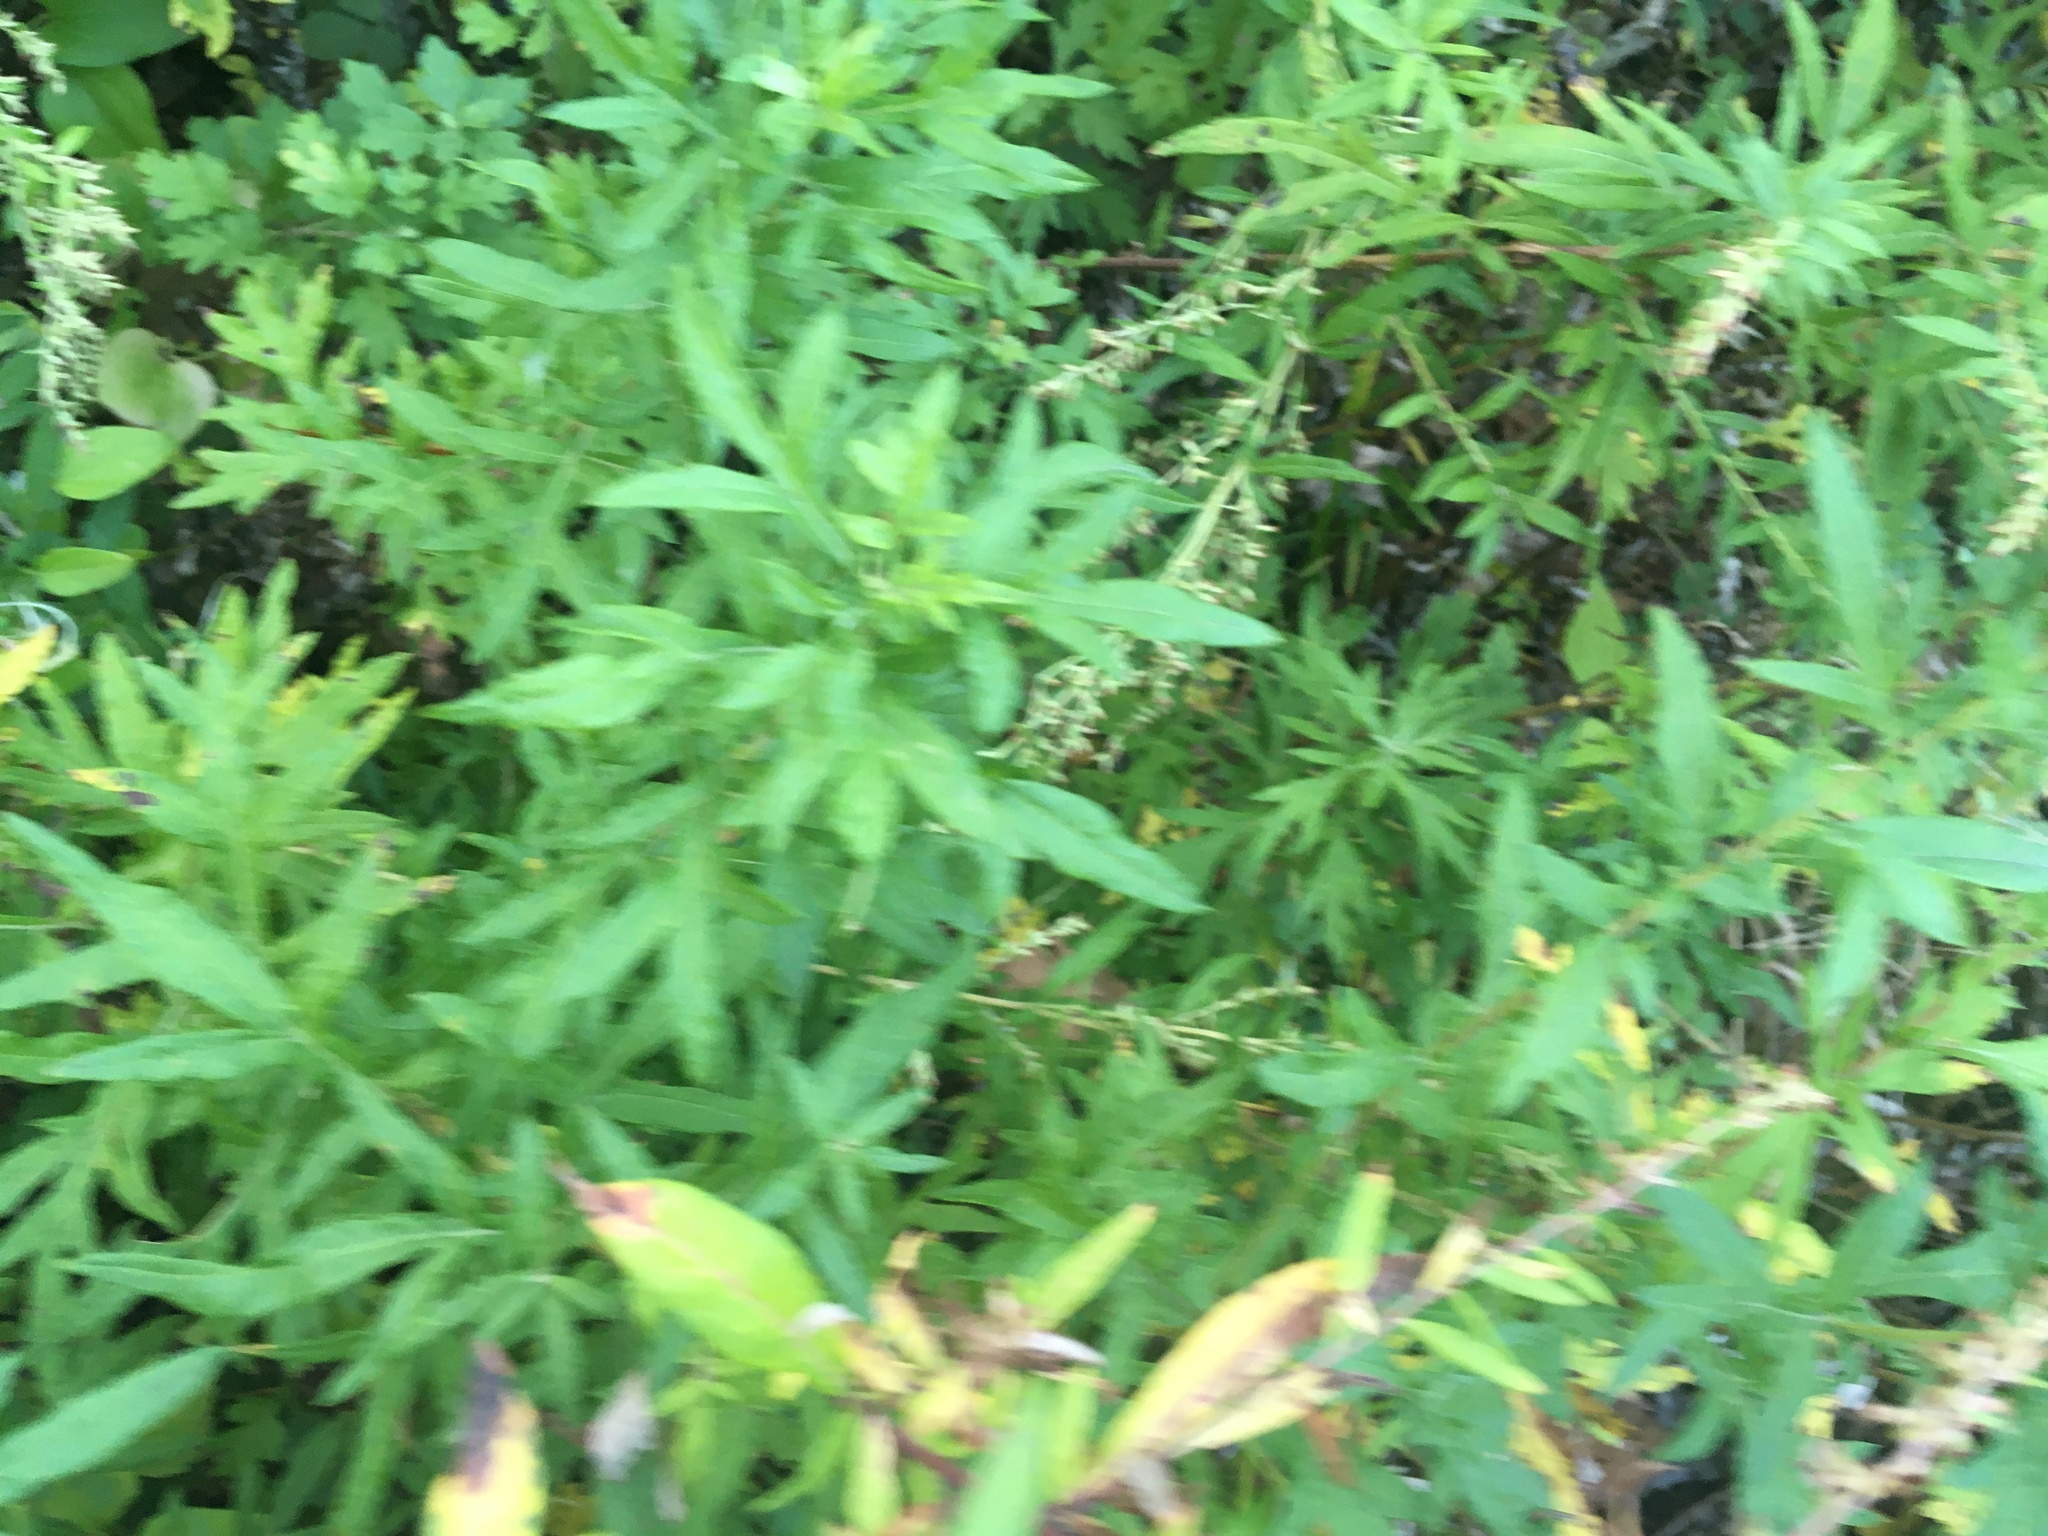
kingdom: Plantae
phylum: Tracheophyta
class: Magnoliopsida
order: Asterales
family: Asteraceae
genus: Artemisia
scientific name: Artemisia vulgaris
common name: Mugwort
